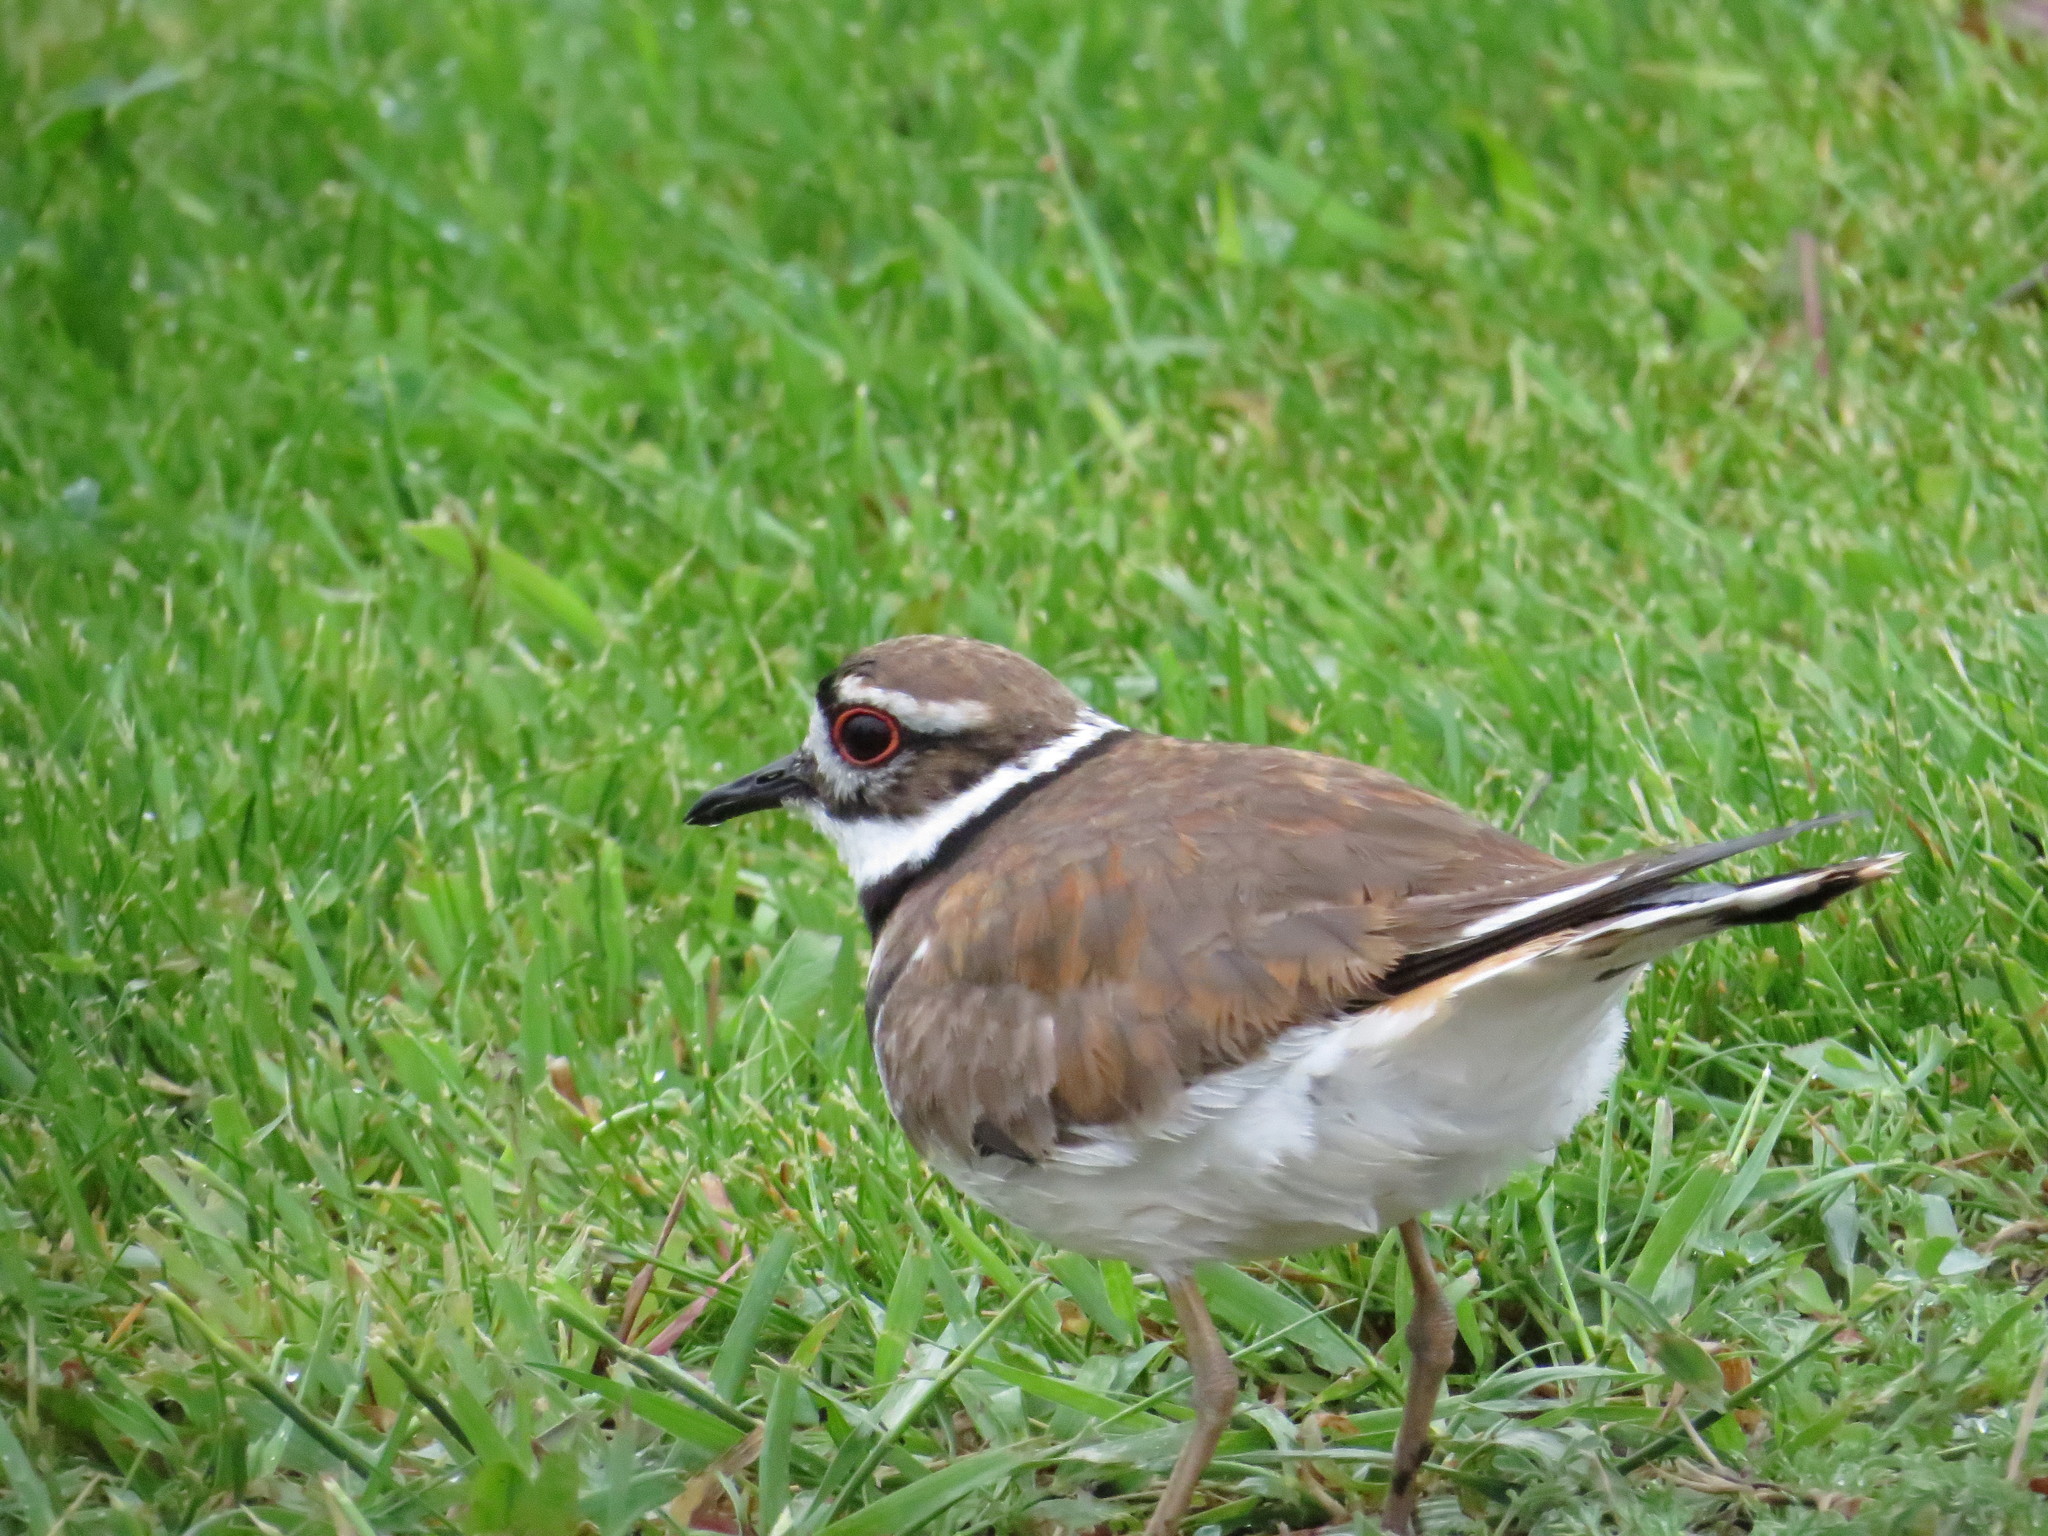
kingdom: Animalia
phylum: Chordata
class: Aves
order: Charadriiformes
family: Charadriidae
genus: Charadrius
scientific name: Charadrius vociferus
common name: Killdeer
